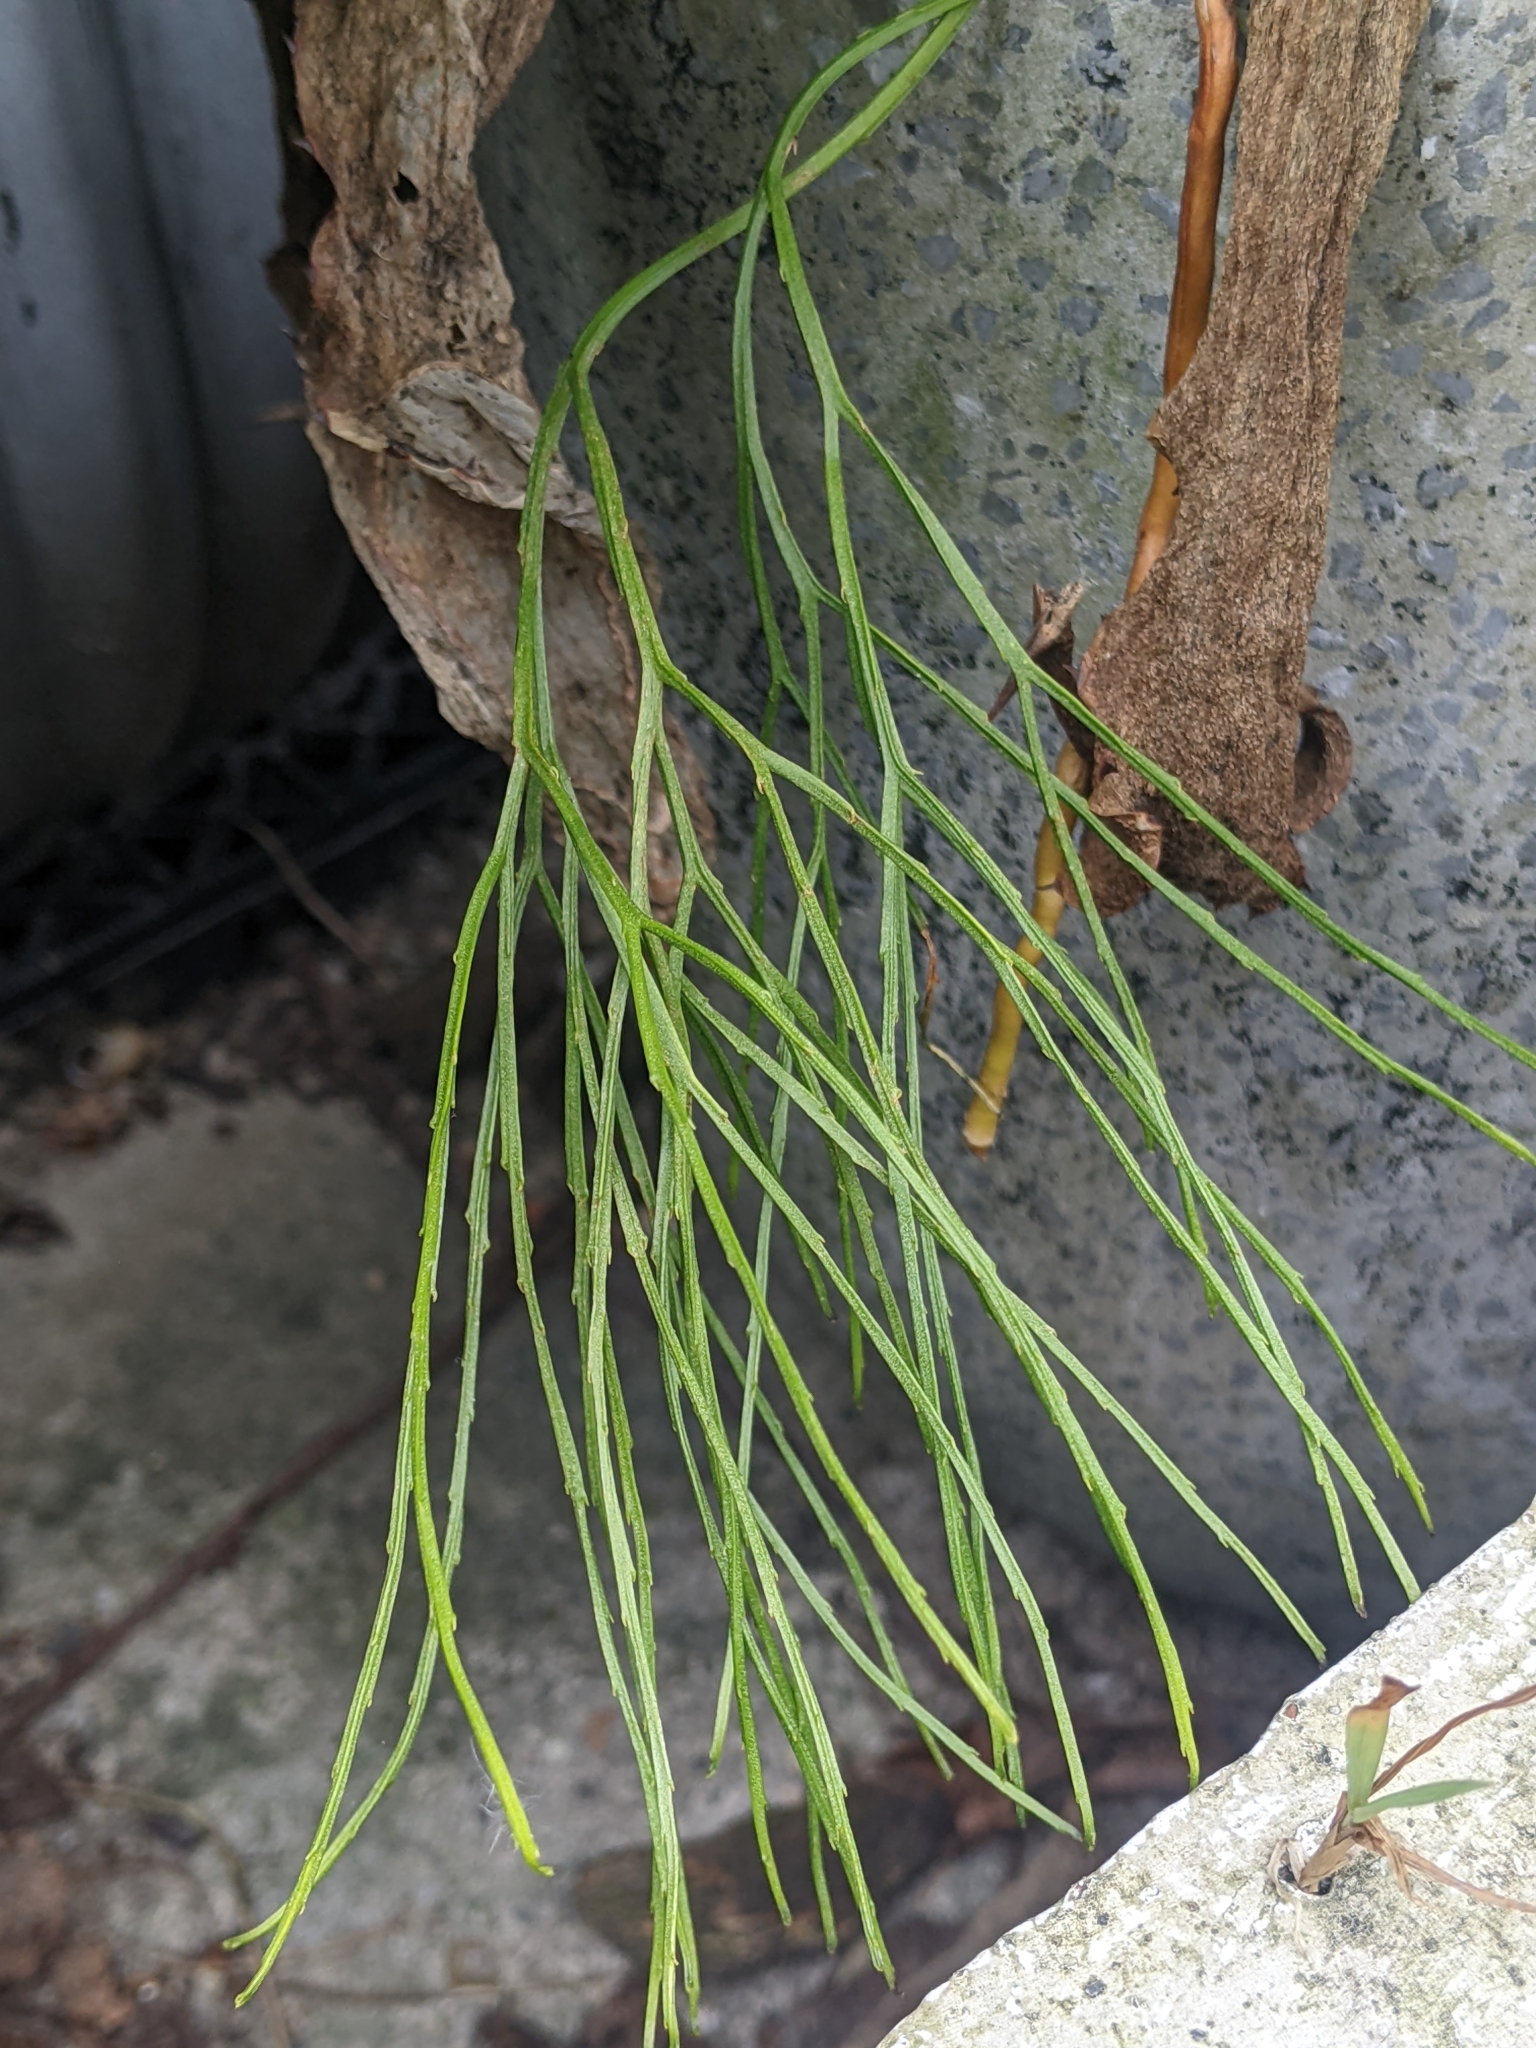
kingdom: Plantae
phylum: Tracheophyta
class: Polypodiopsida
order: Psilotales
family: Psilotaceae
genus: Psilotum
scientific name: Psilotum nudum
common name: Skeleton fork fern
